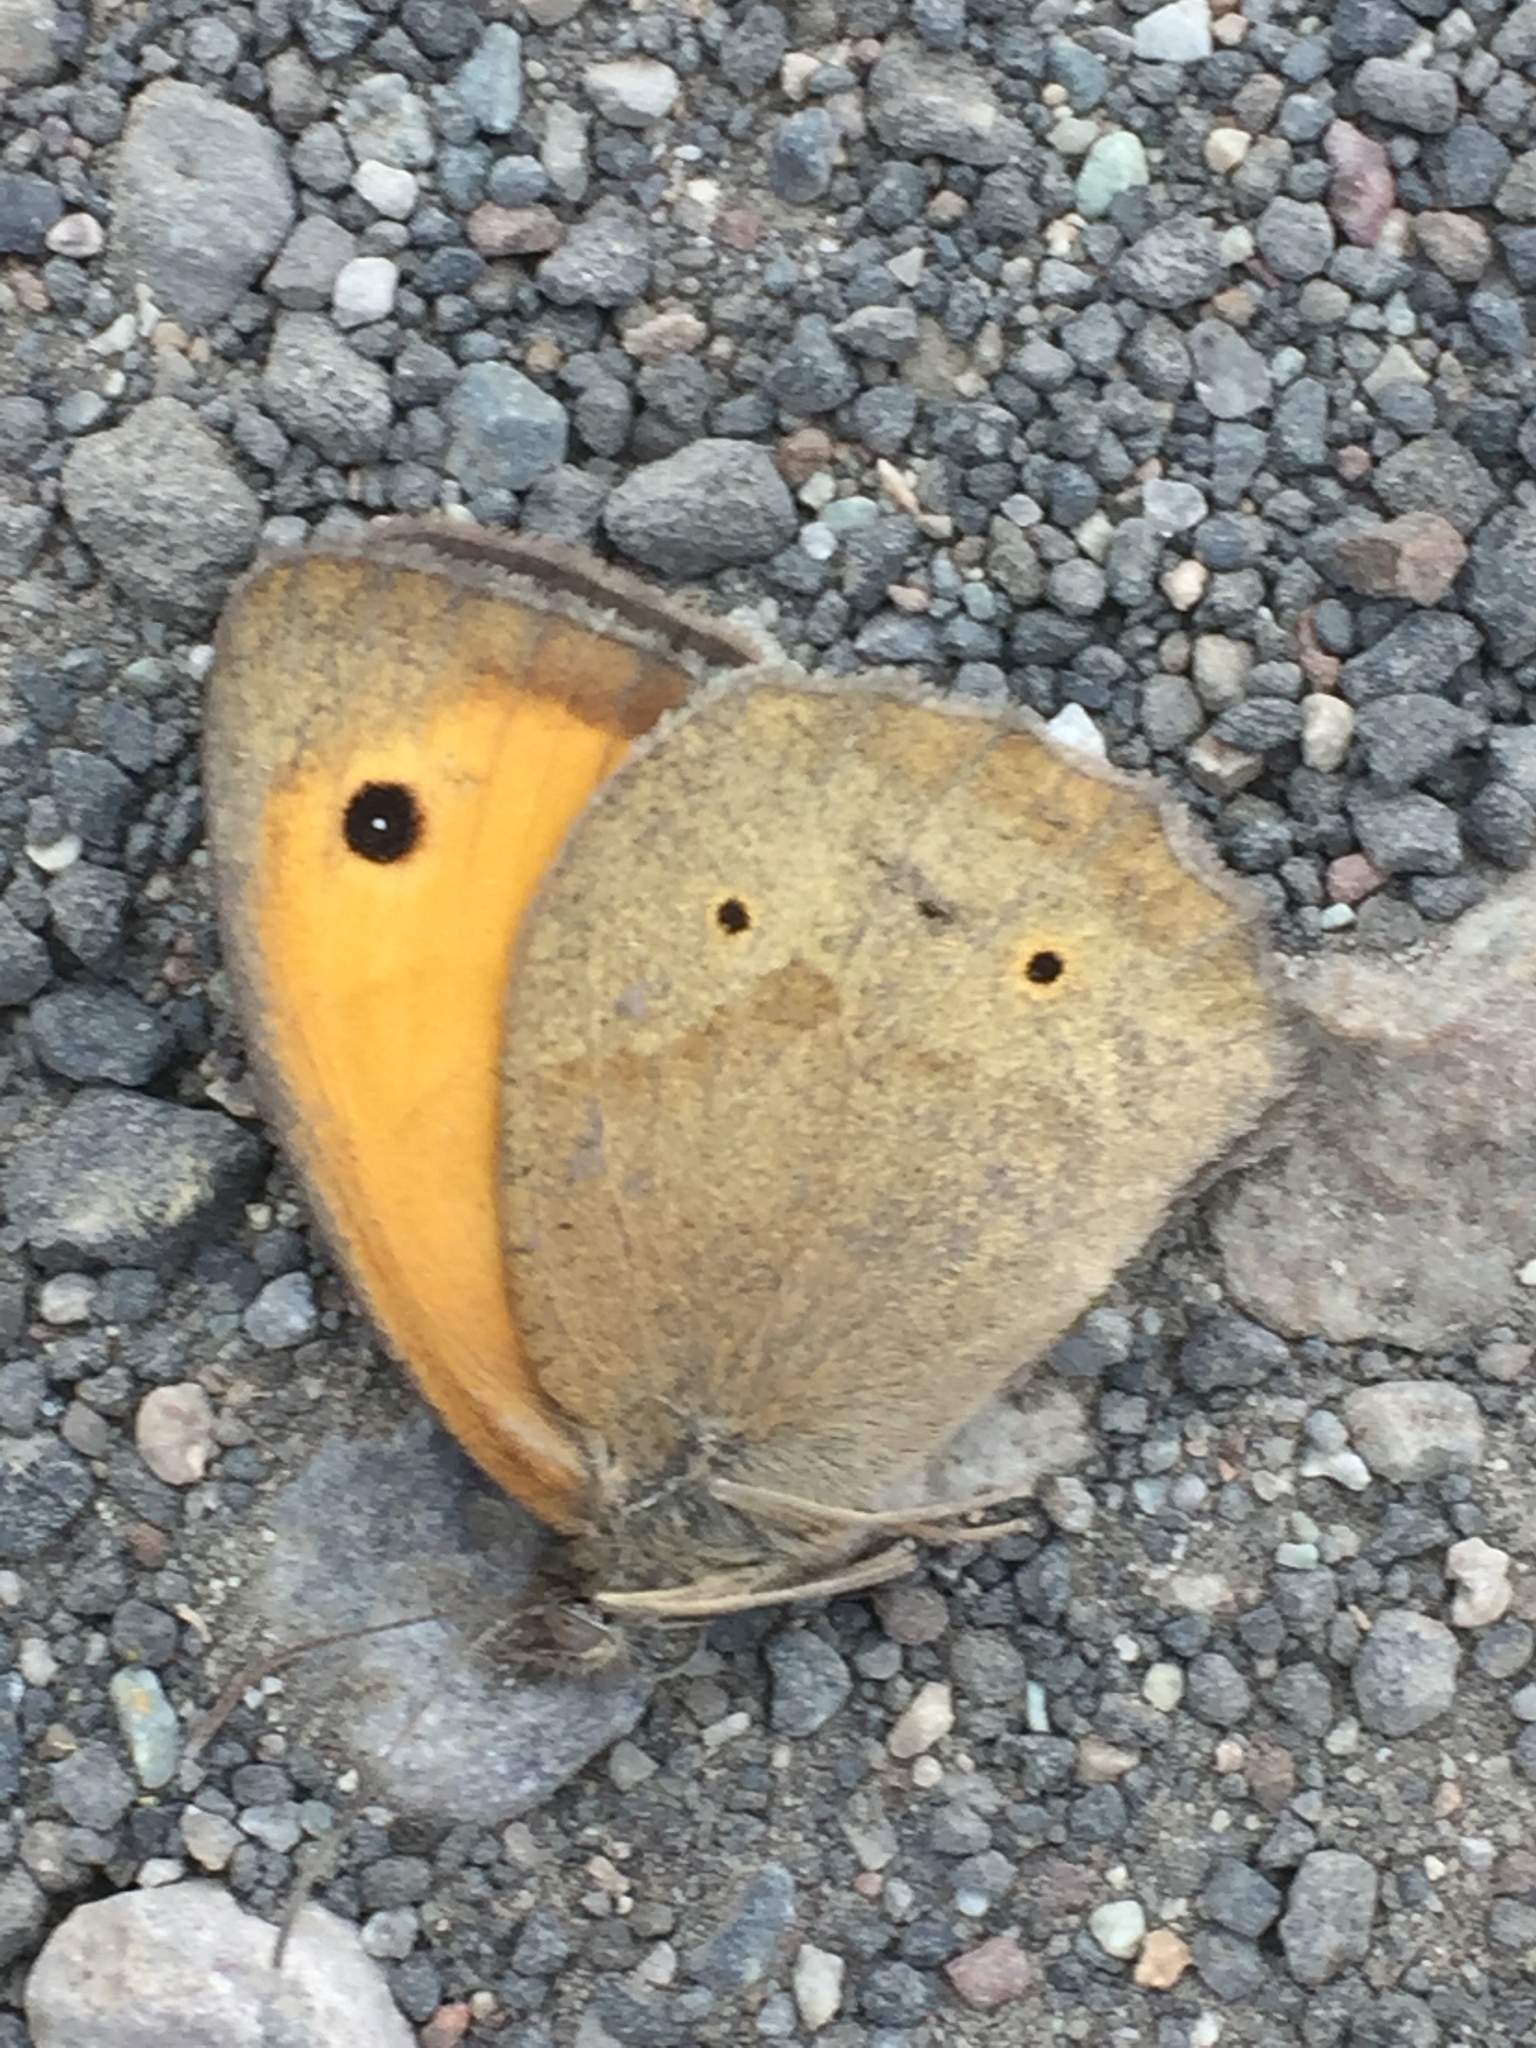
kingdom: Animalia
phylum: Arthropoda
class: Insecta
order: Lepidoptera
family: Nymphalidae
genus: Maniola
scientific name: Maniola jurtina
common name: Meadow brown
